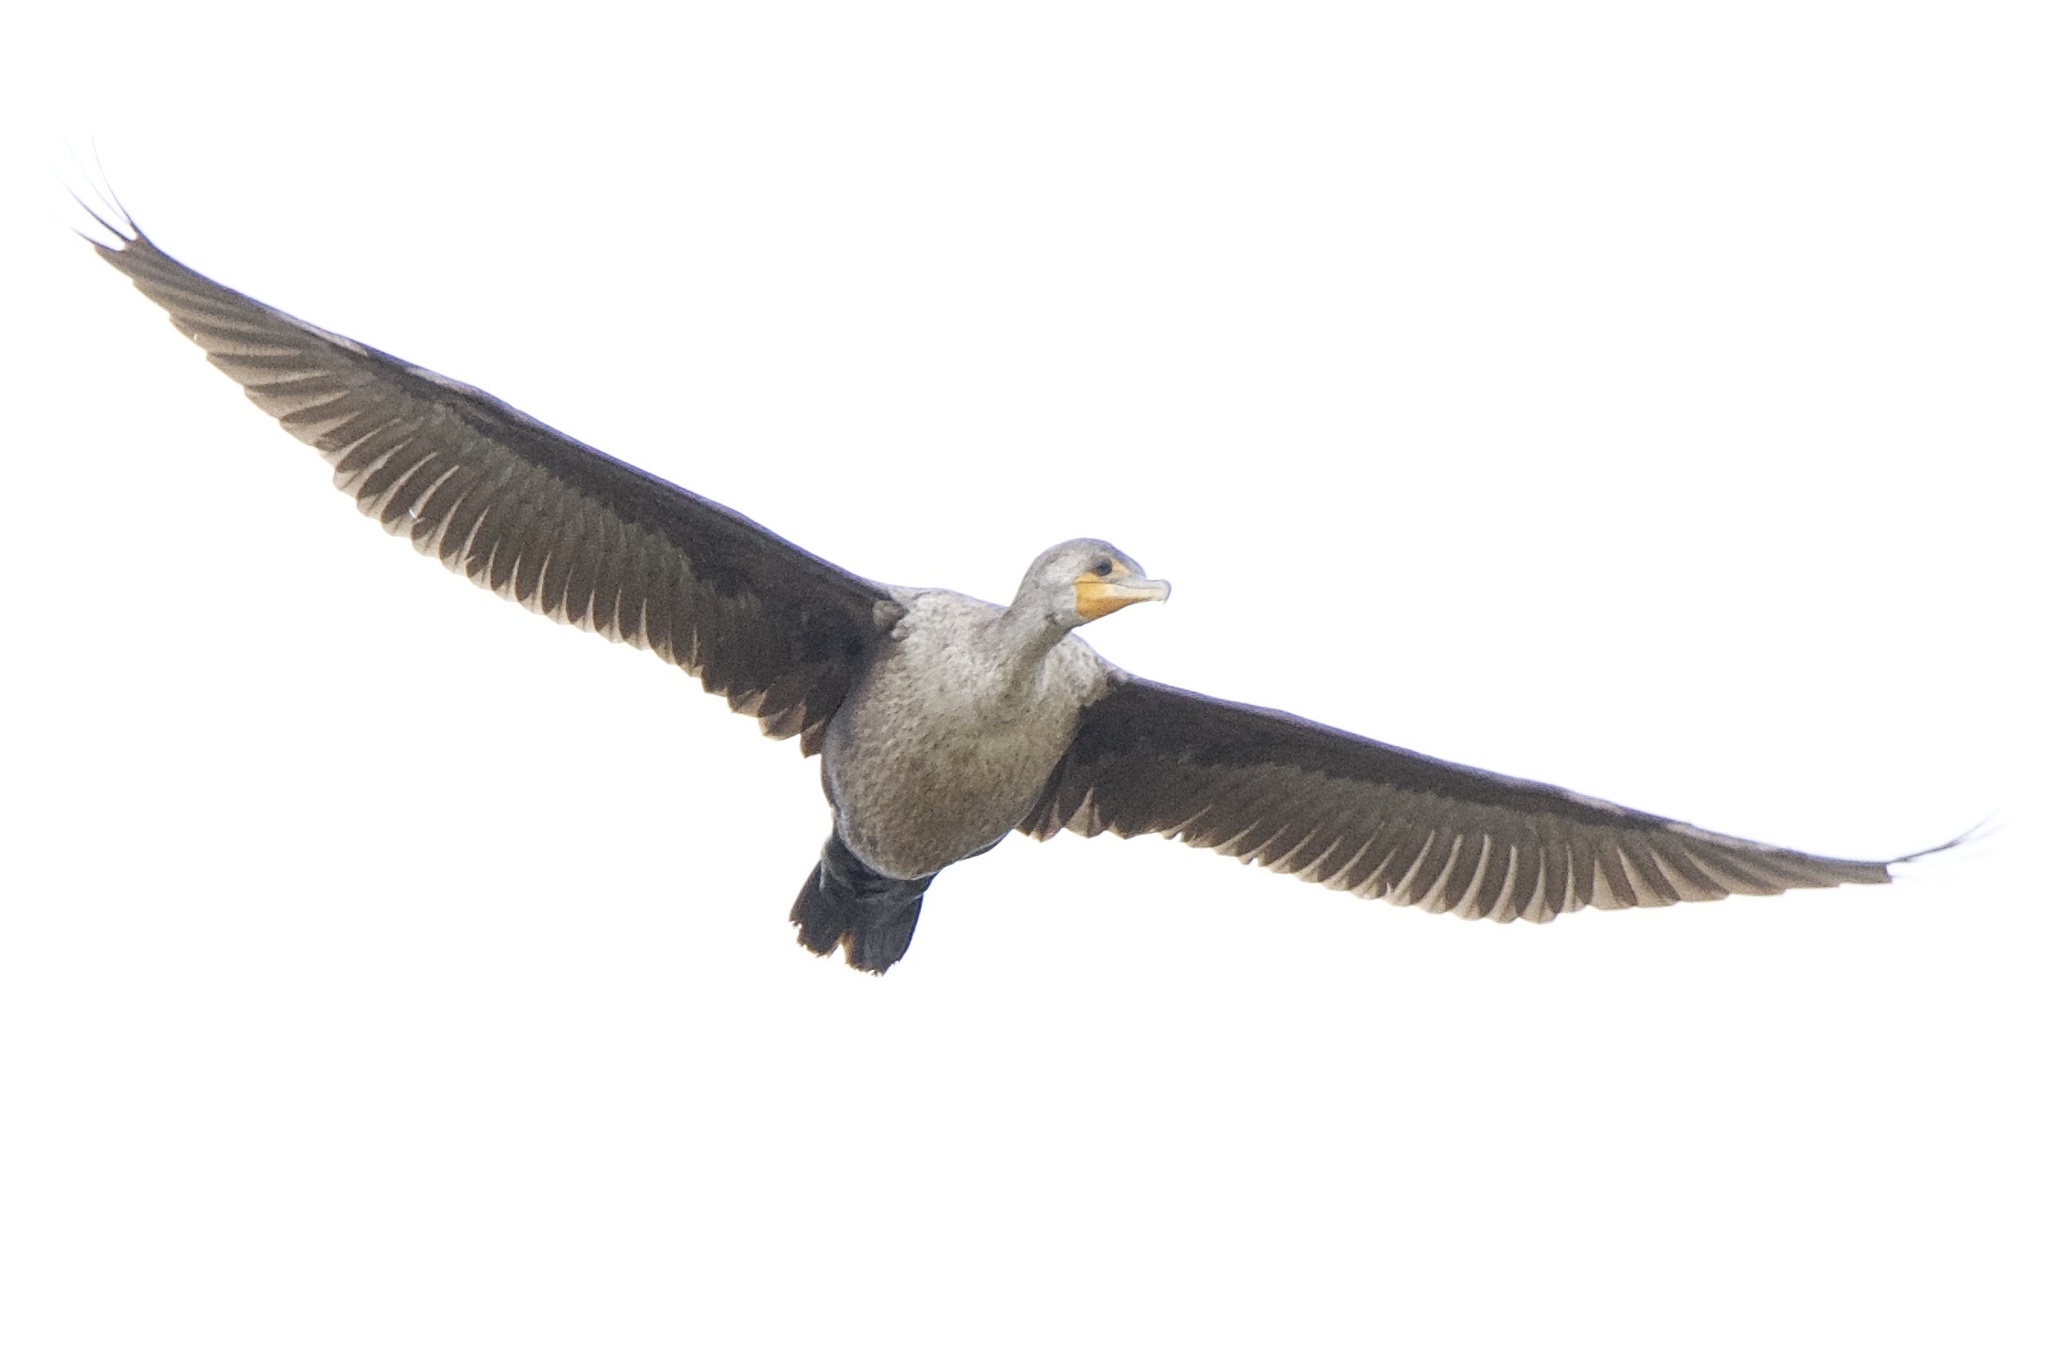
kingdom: Animalia
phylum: Chordata
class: Aves
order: Suliformes
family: Phalacrocoracidae
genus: Phalacrocorax
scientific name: Phalacrocorax auritus
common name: Double-crested cormorant
